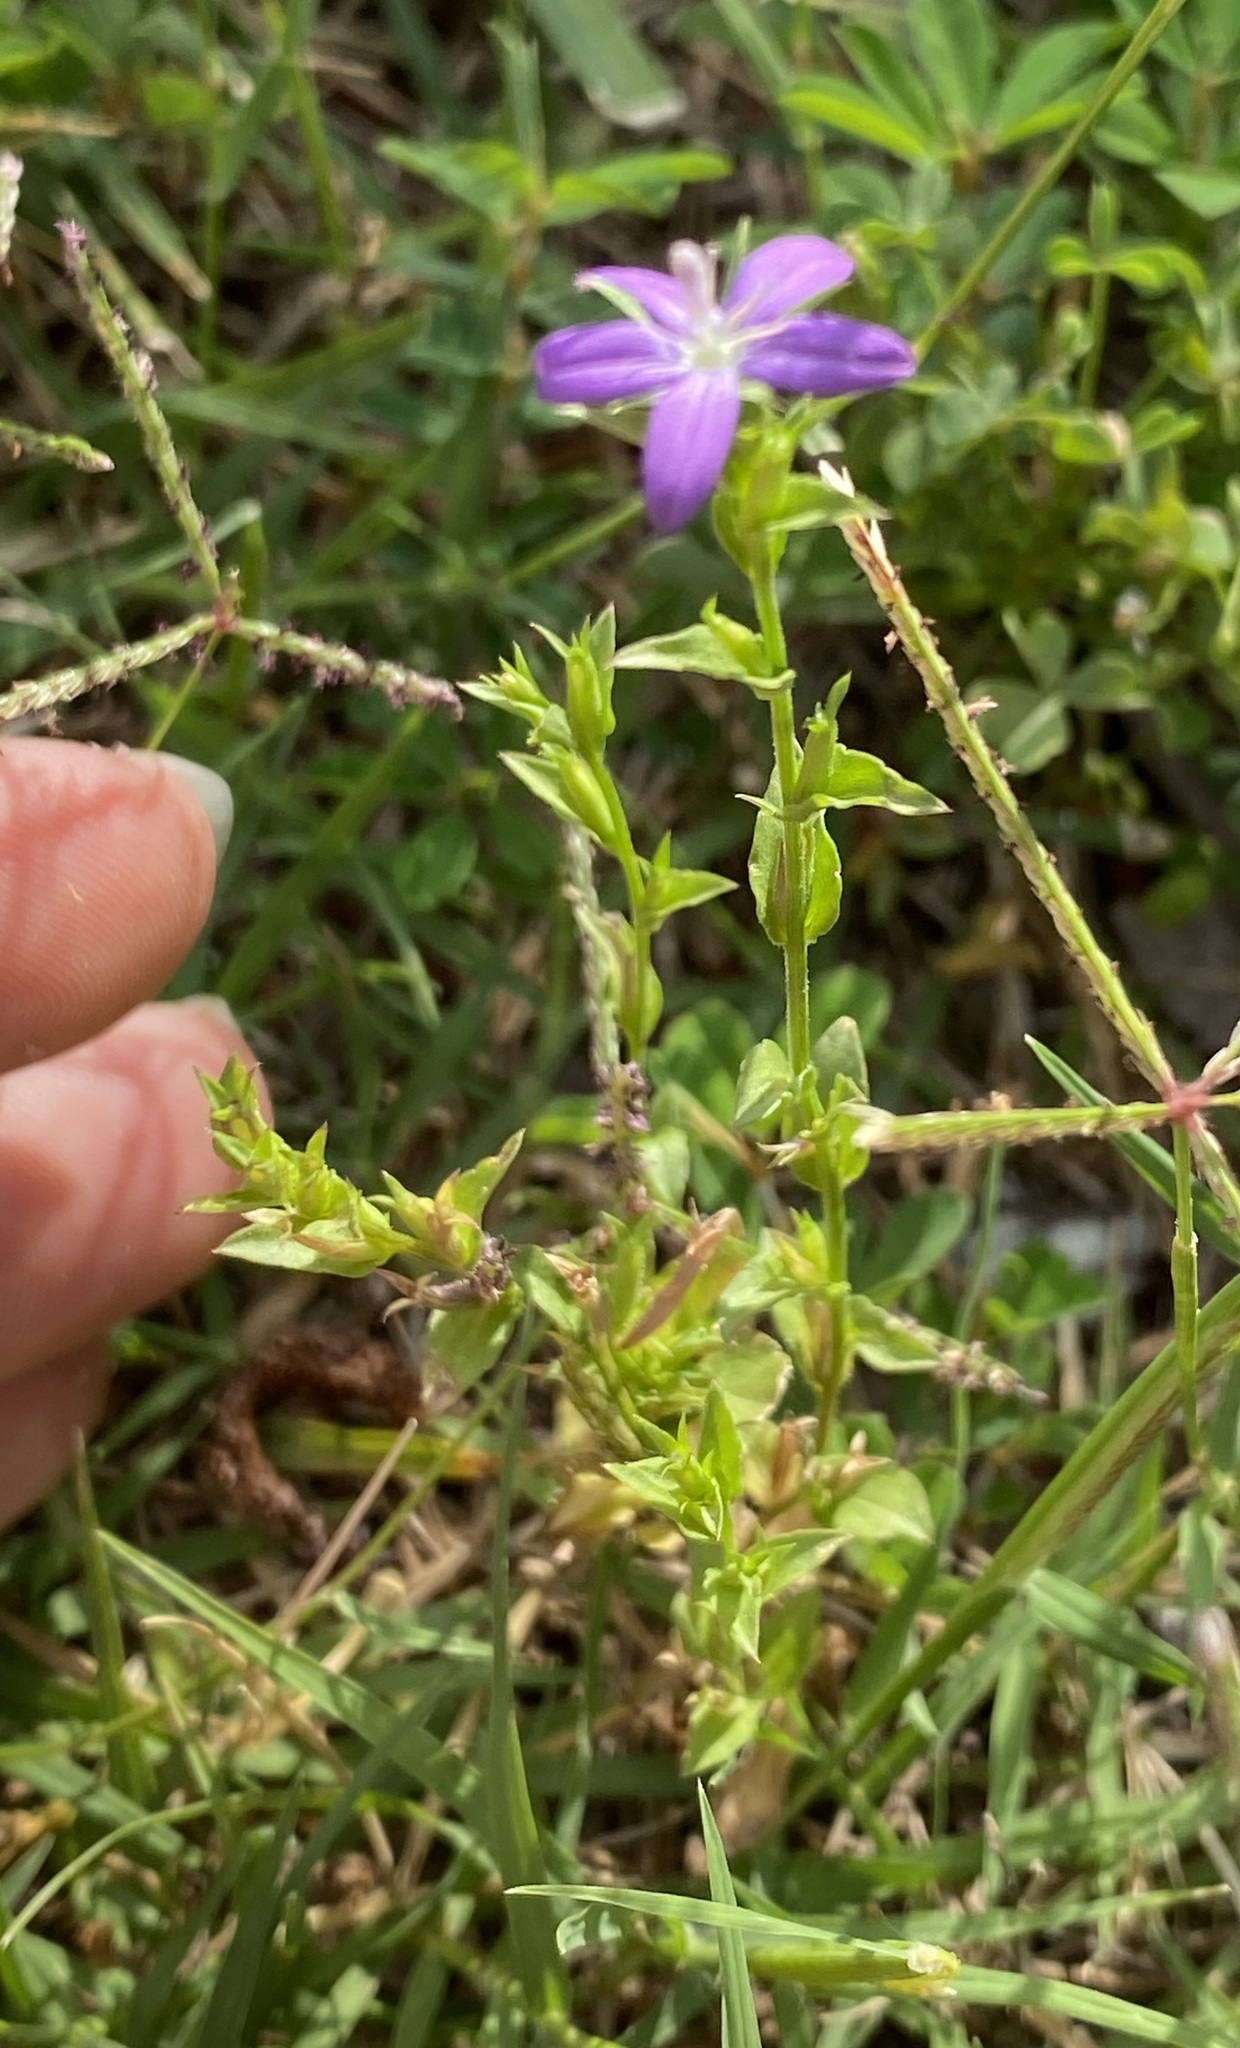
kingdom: Plantae
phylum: Tracheophyta
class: Magnoliopsida
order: Asterales
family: Campanulaceae
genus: Triodanis
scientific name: Triodanis biflora
